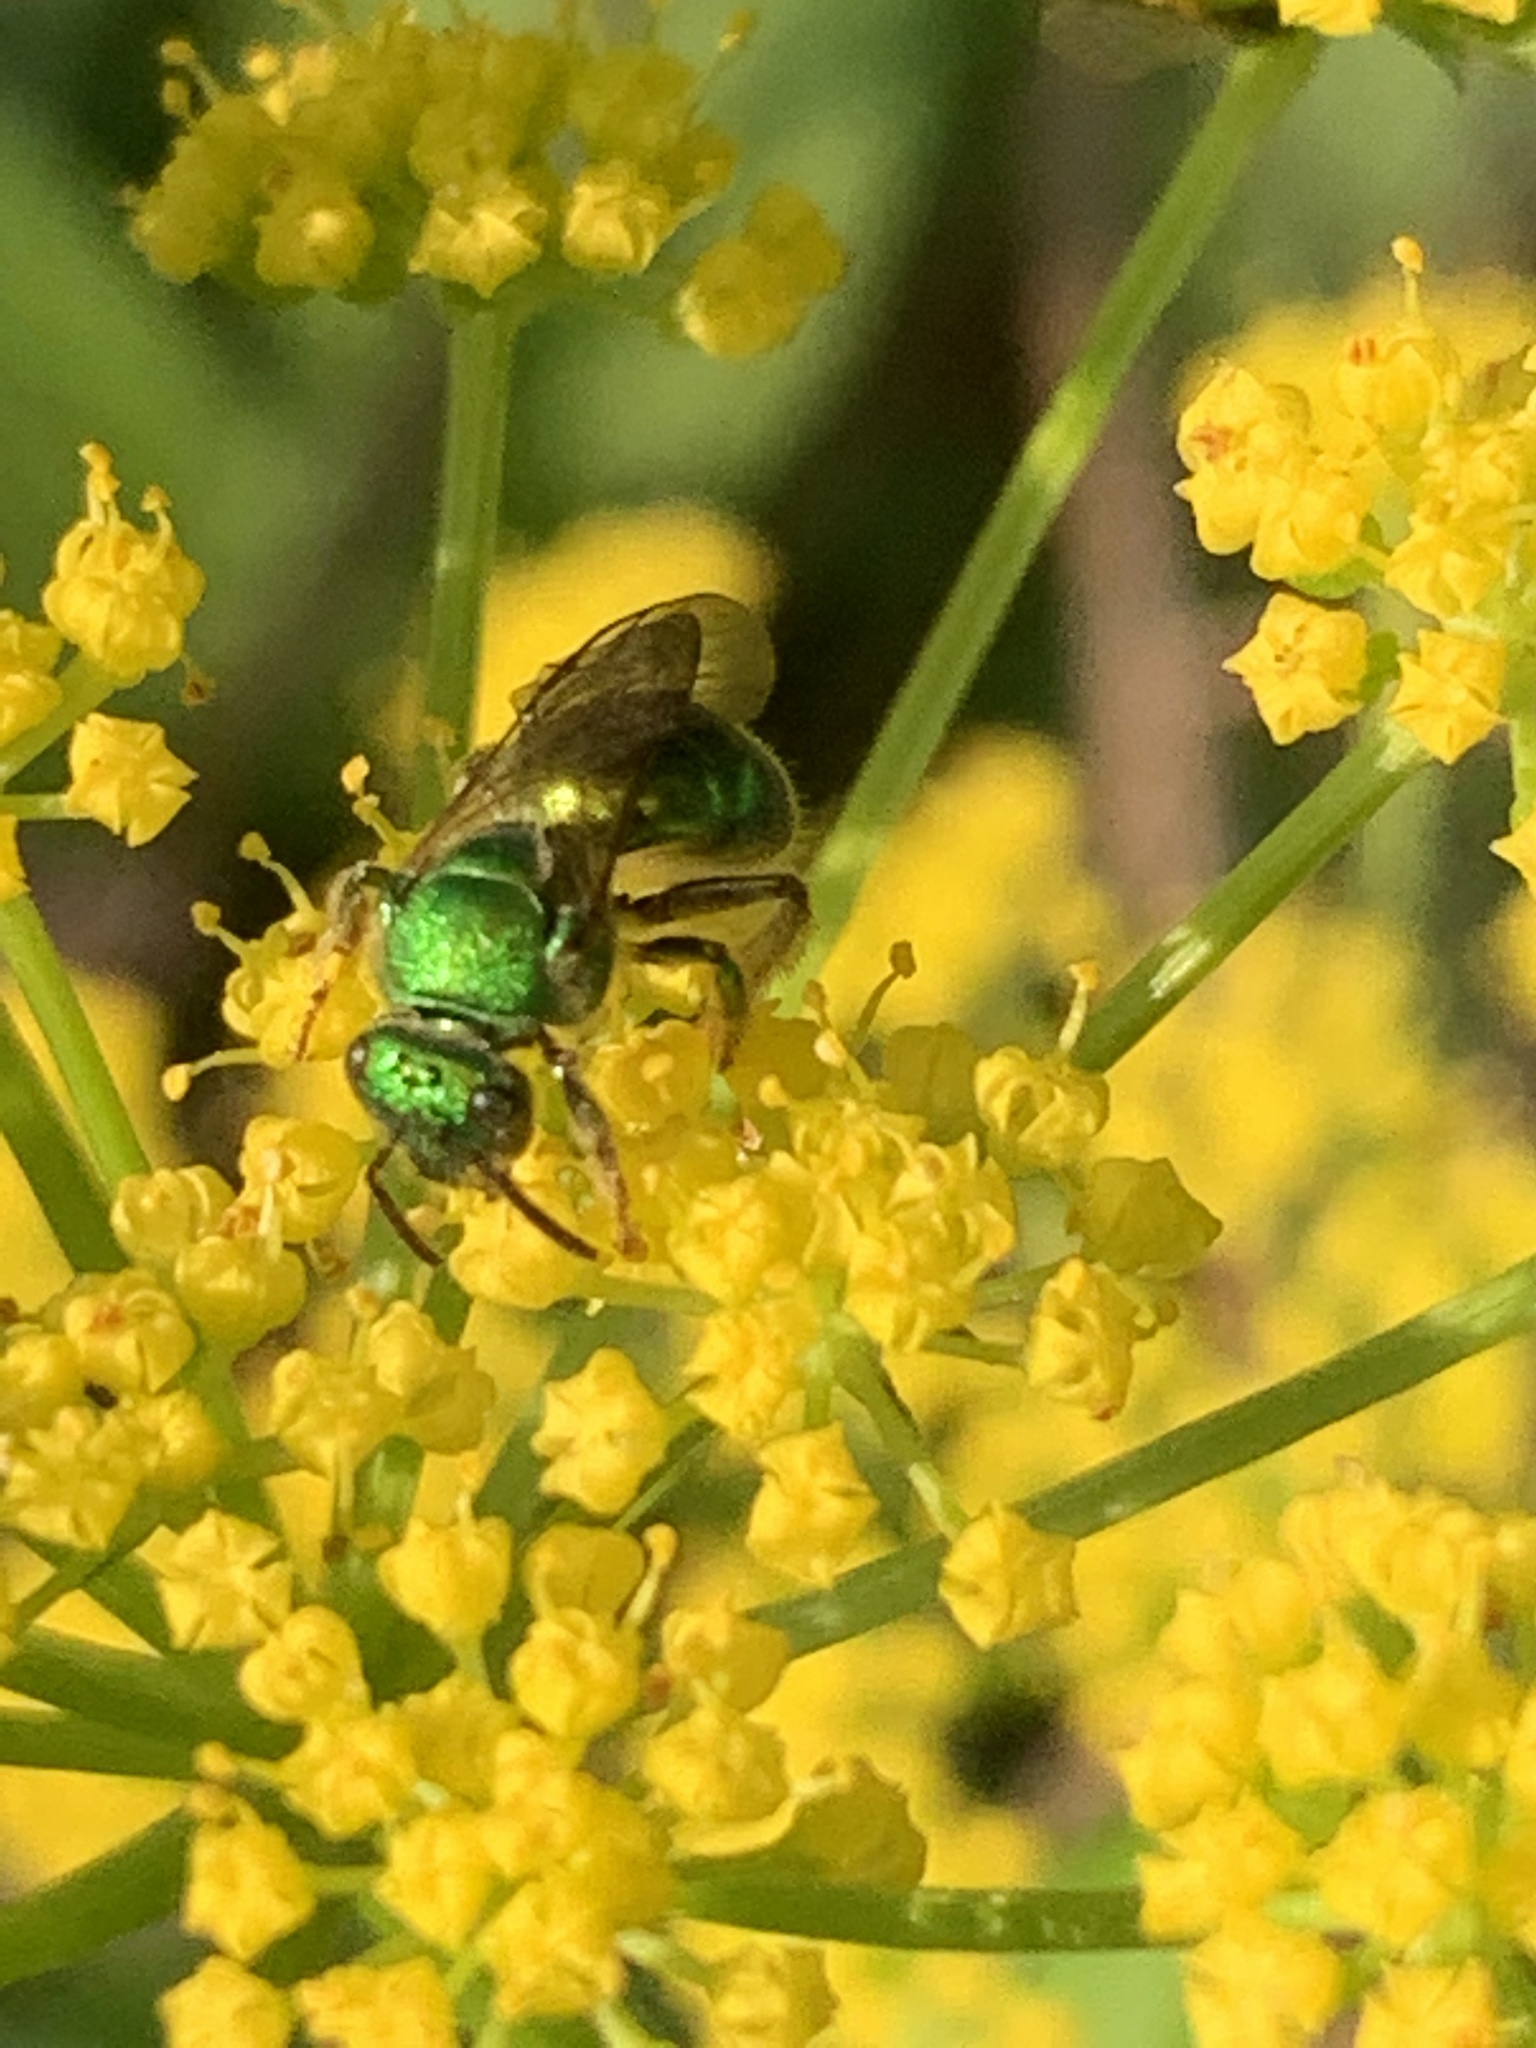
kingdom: Animalia
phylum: Arthropoda
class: Insecta
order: Hymenoptera
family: Halictidae
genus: Augochloropsis
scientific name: Augochloropsis viridula
